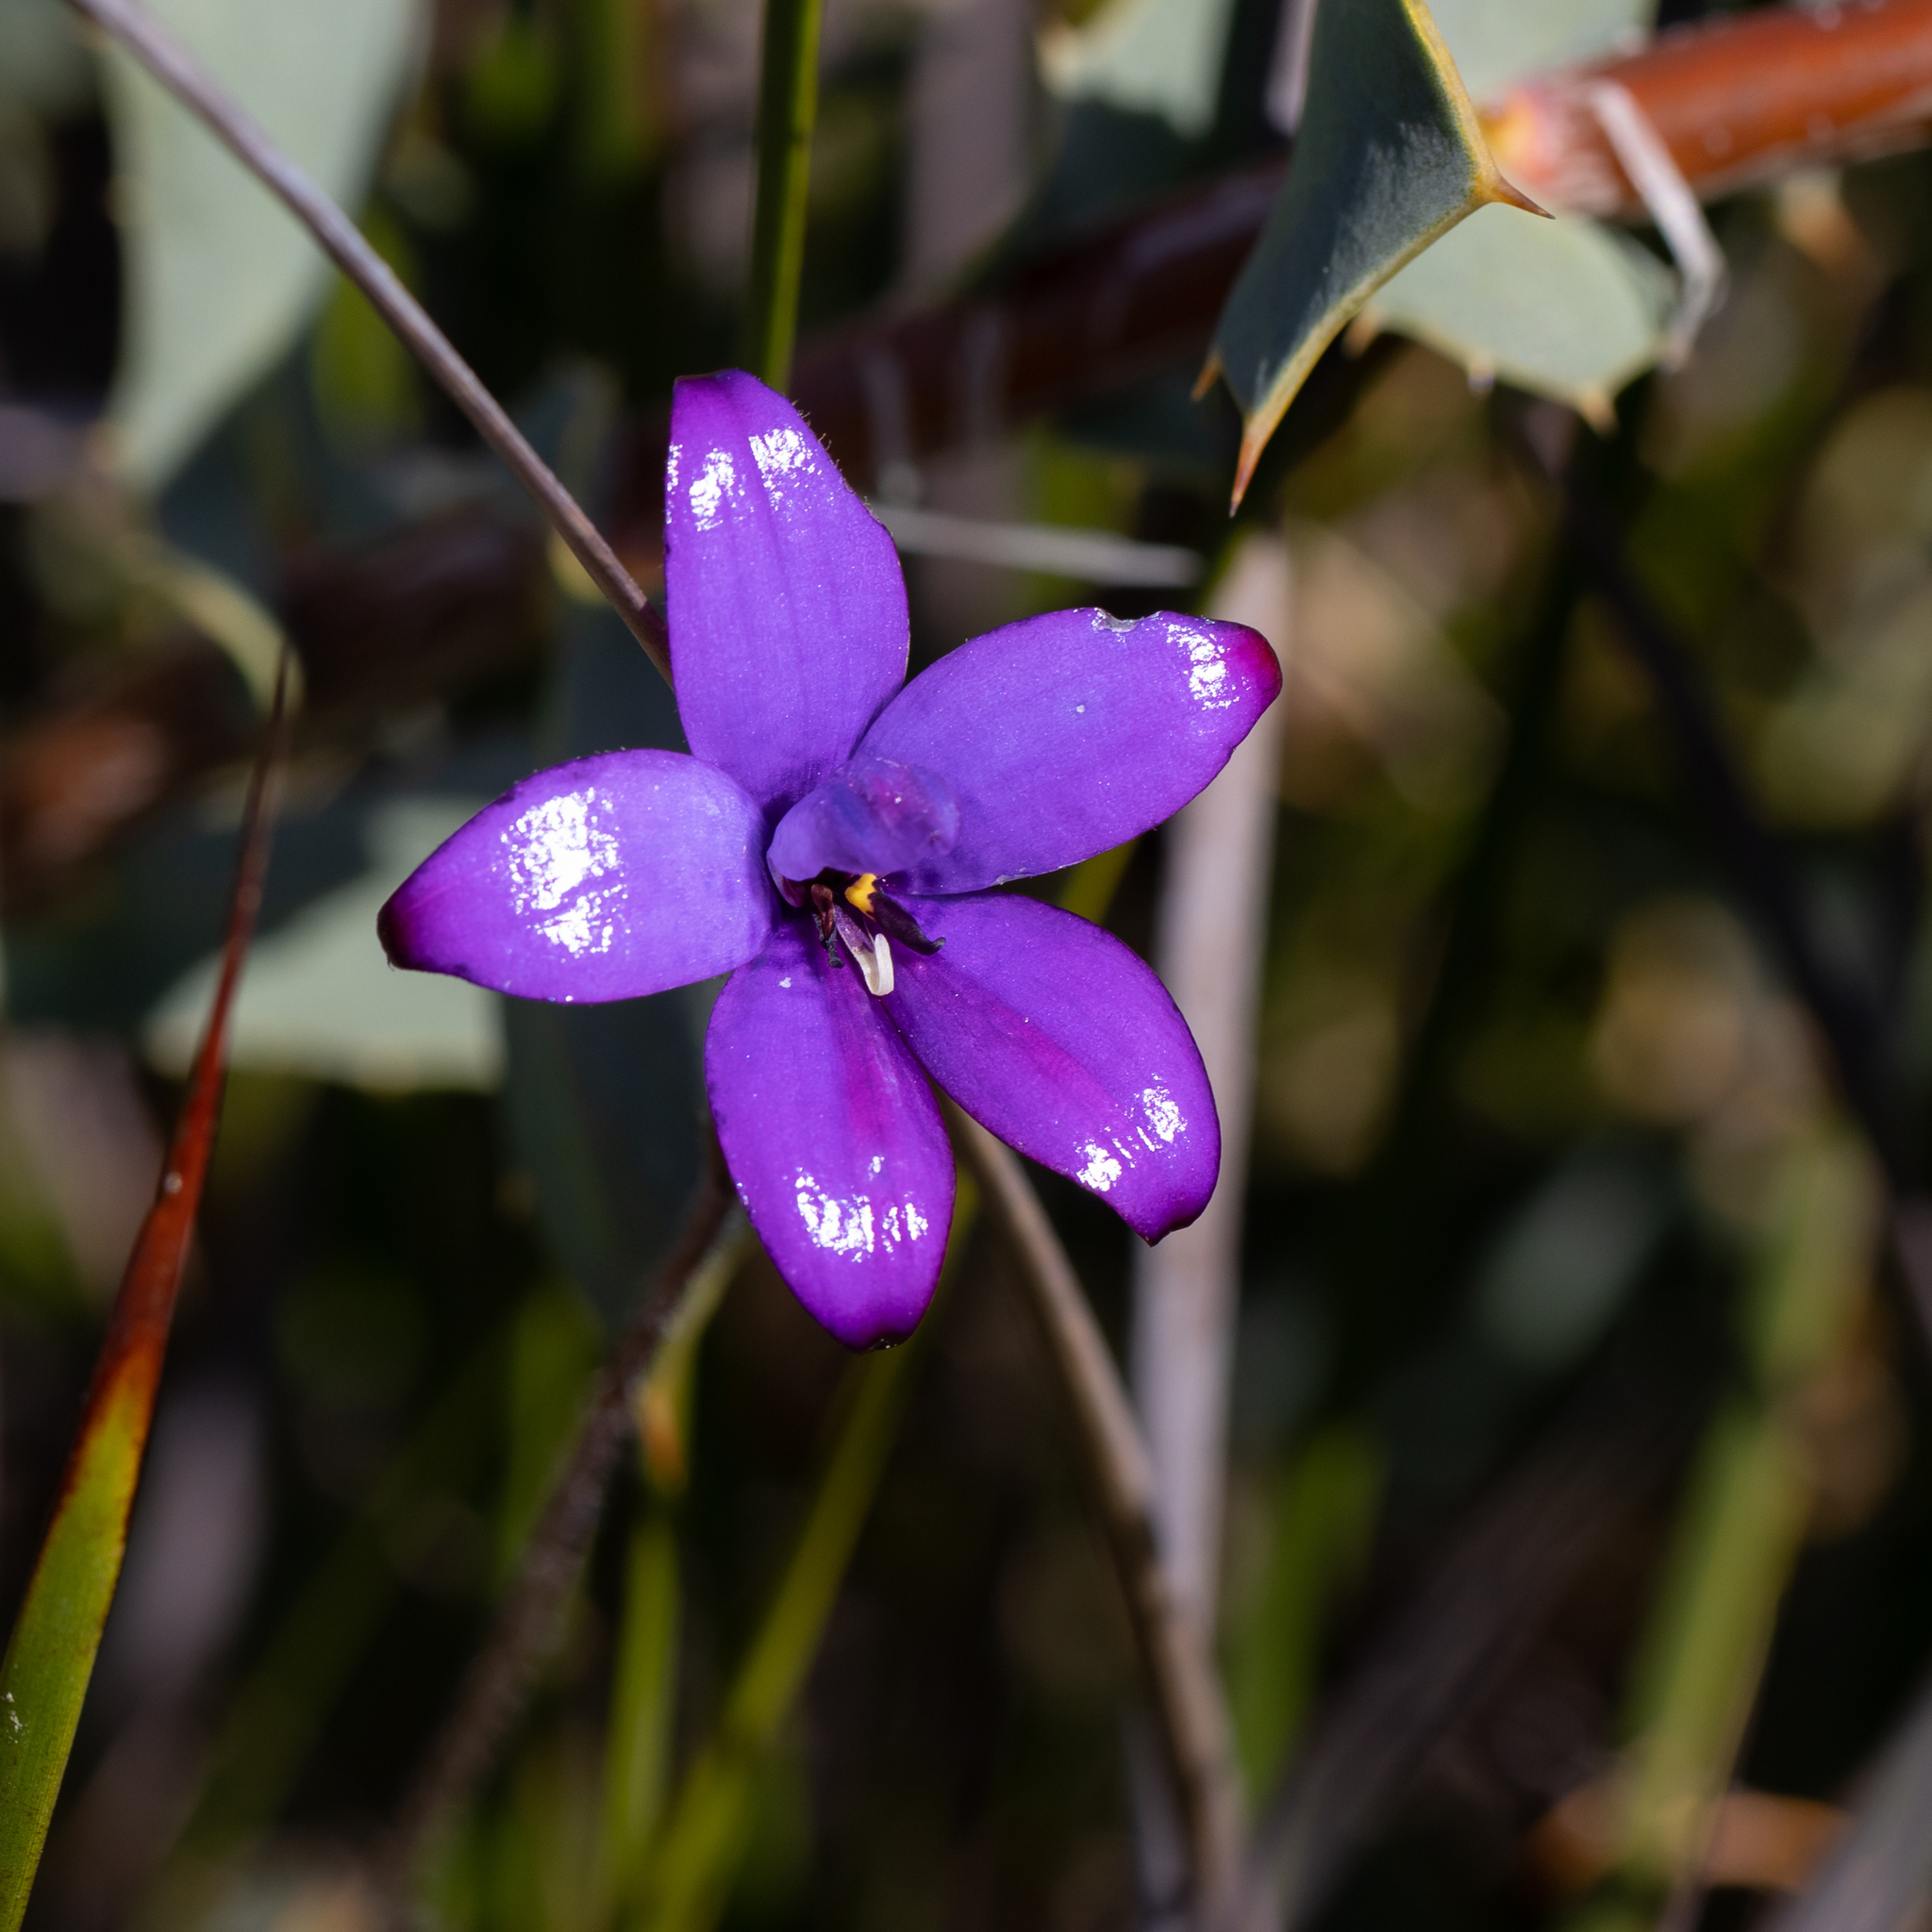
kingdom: Plantae
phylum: Tracheophyta
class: Liliopsida
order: Asparagales
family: Orchidaceae
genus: Caladenia
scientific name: Caladenia brunonis
